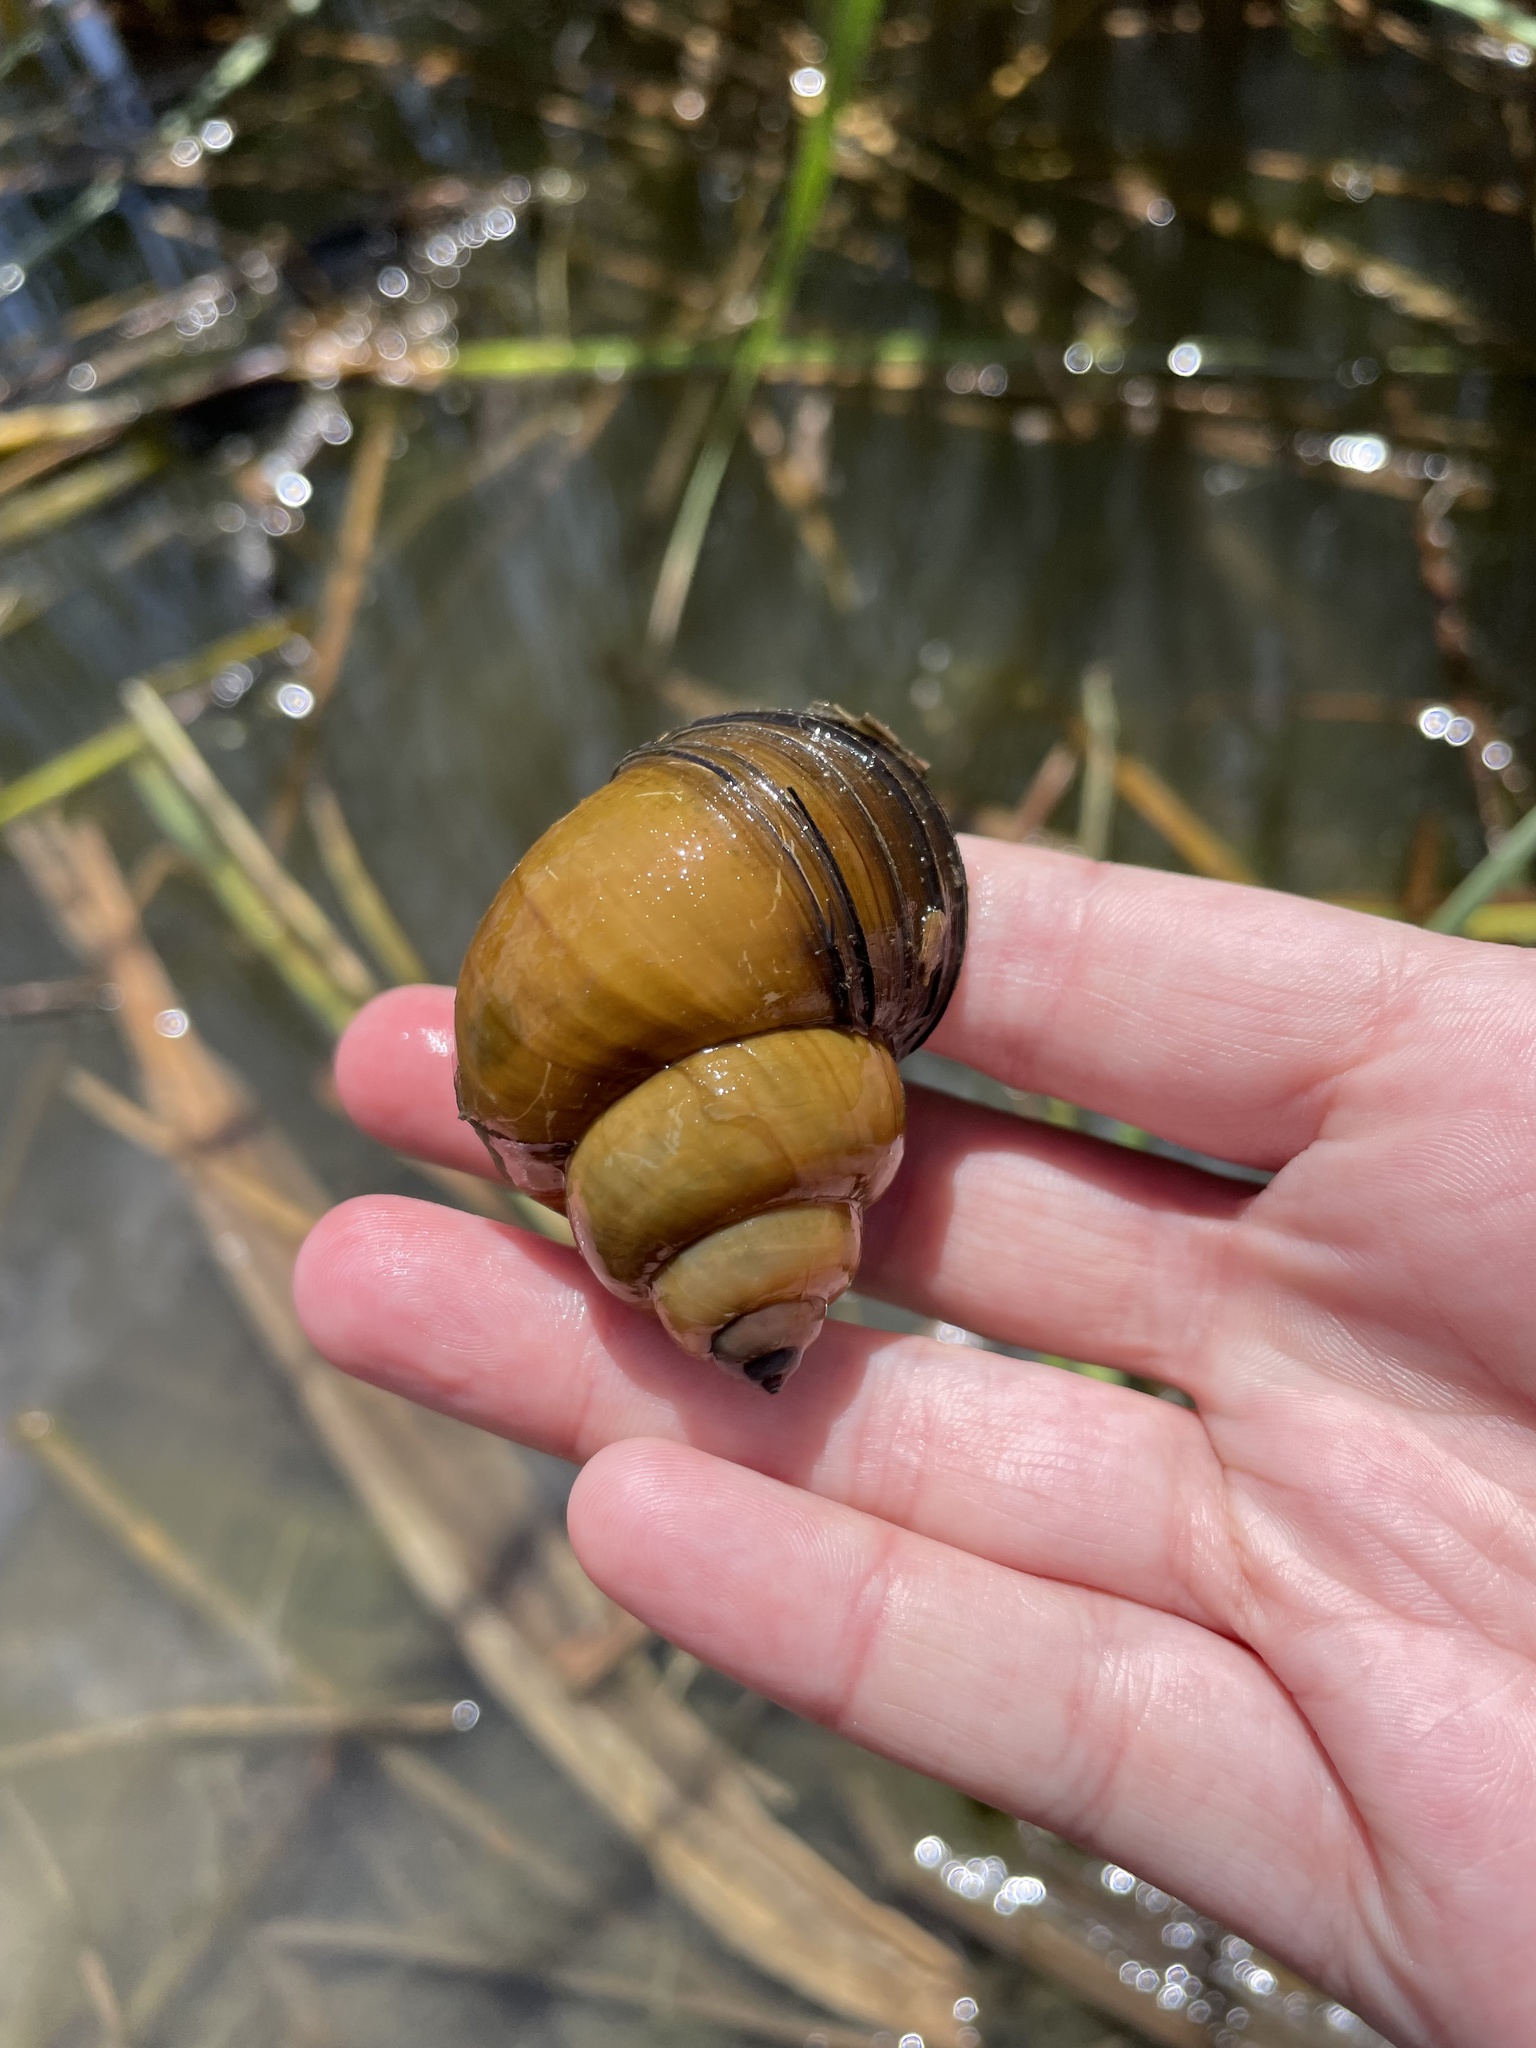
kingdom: Animalia
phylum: Mollusca
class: Gastropoda
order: Architaenioglossa
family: Viviparidae
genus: Cipangopaludina
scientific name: Cipangopaludina chinensis
